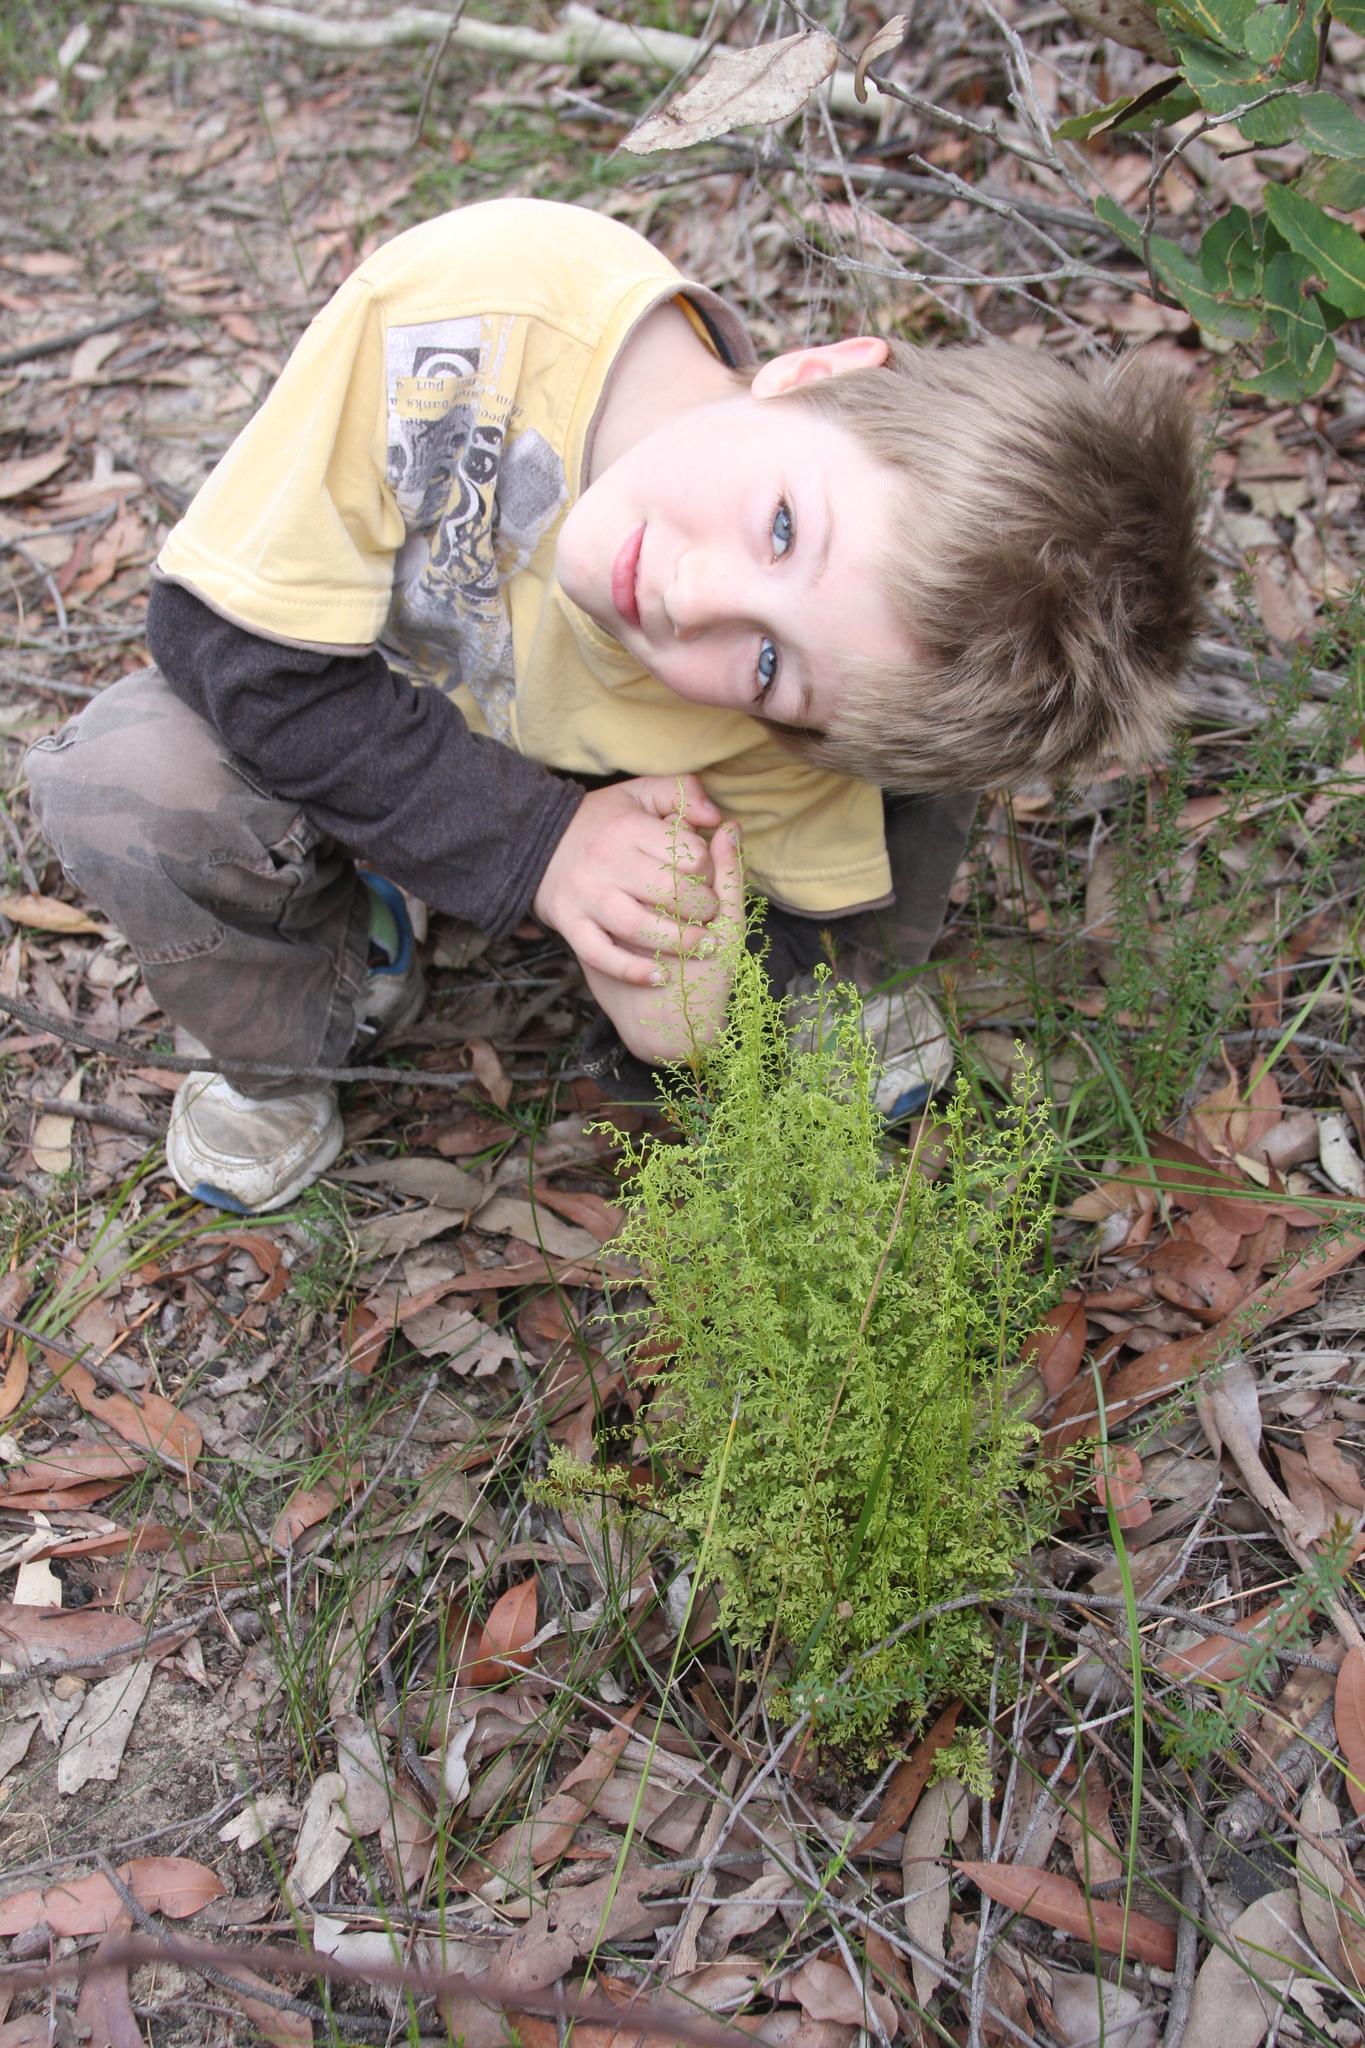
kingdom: Plantae
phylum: Tracheophyta
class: Polypodiopsida
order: Polypodiales
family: Lindsaeaceae
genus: Lindsaea
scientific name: Lindsaea microphylla
